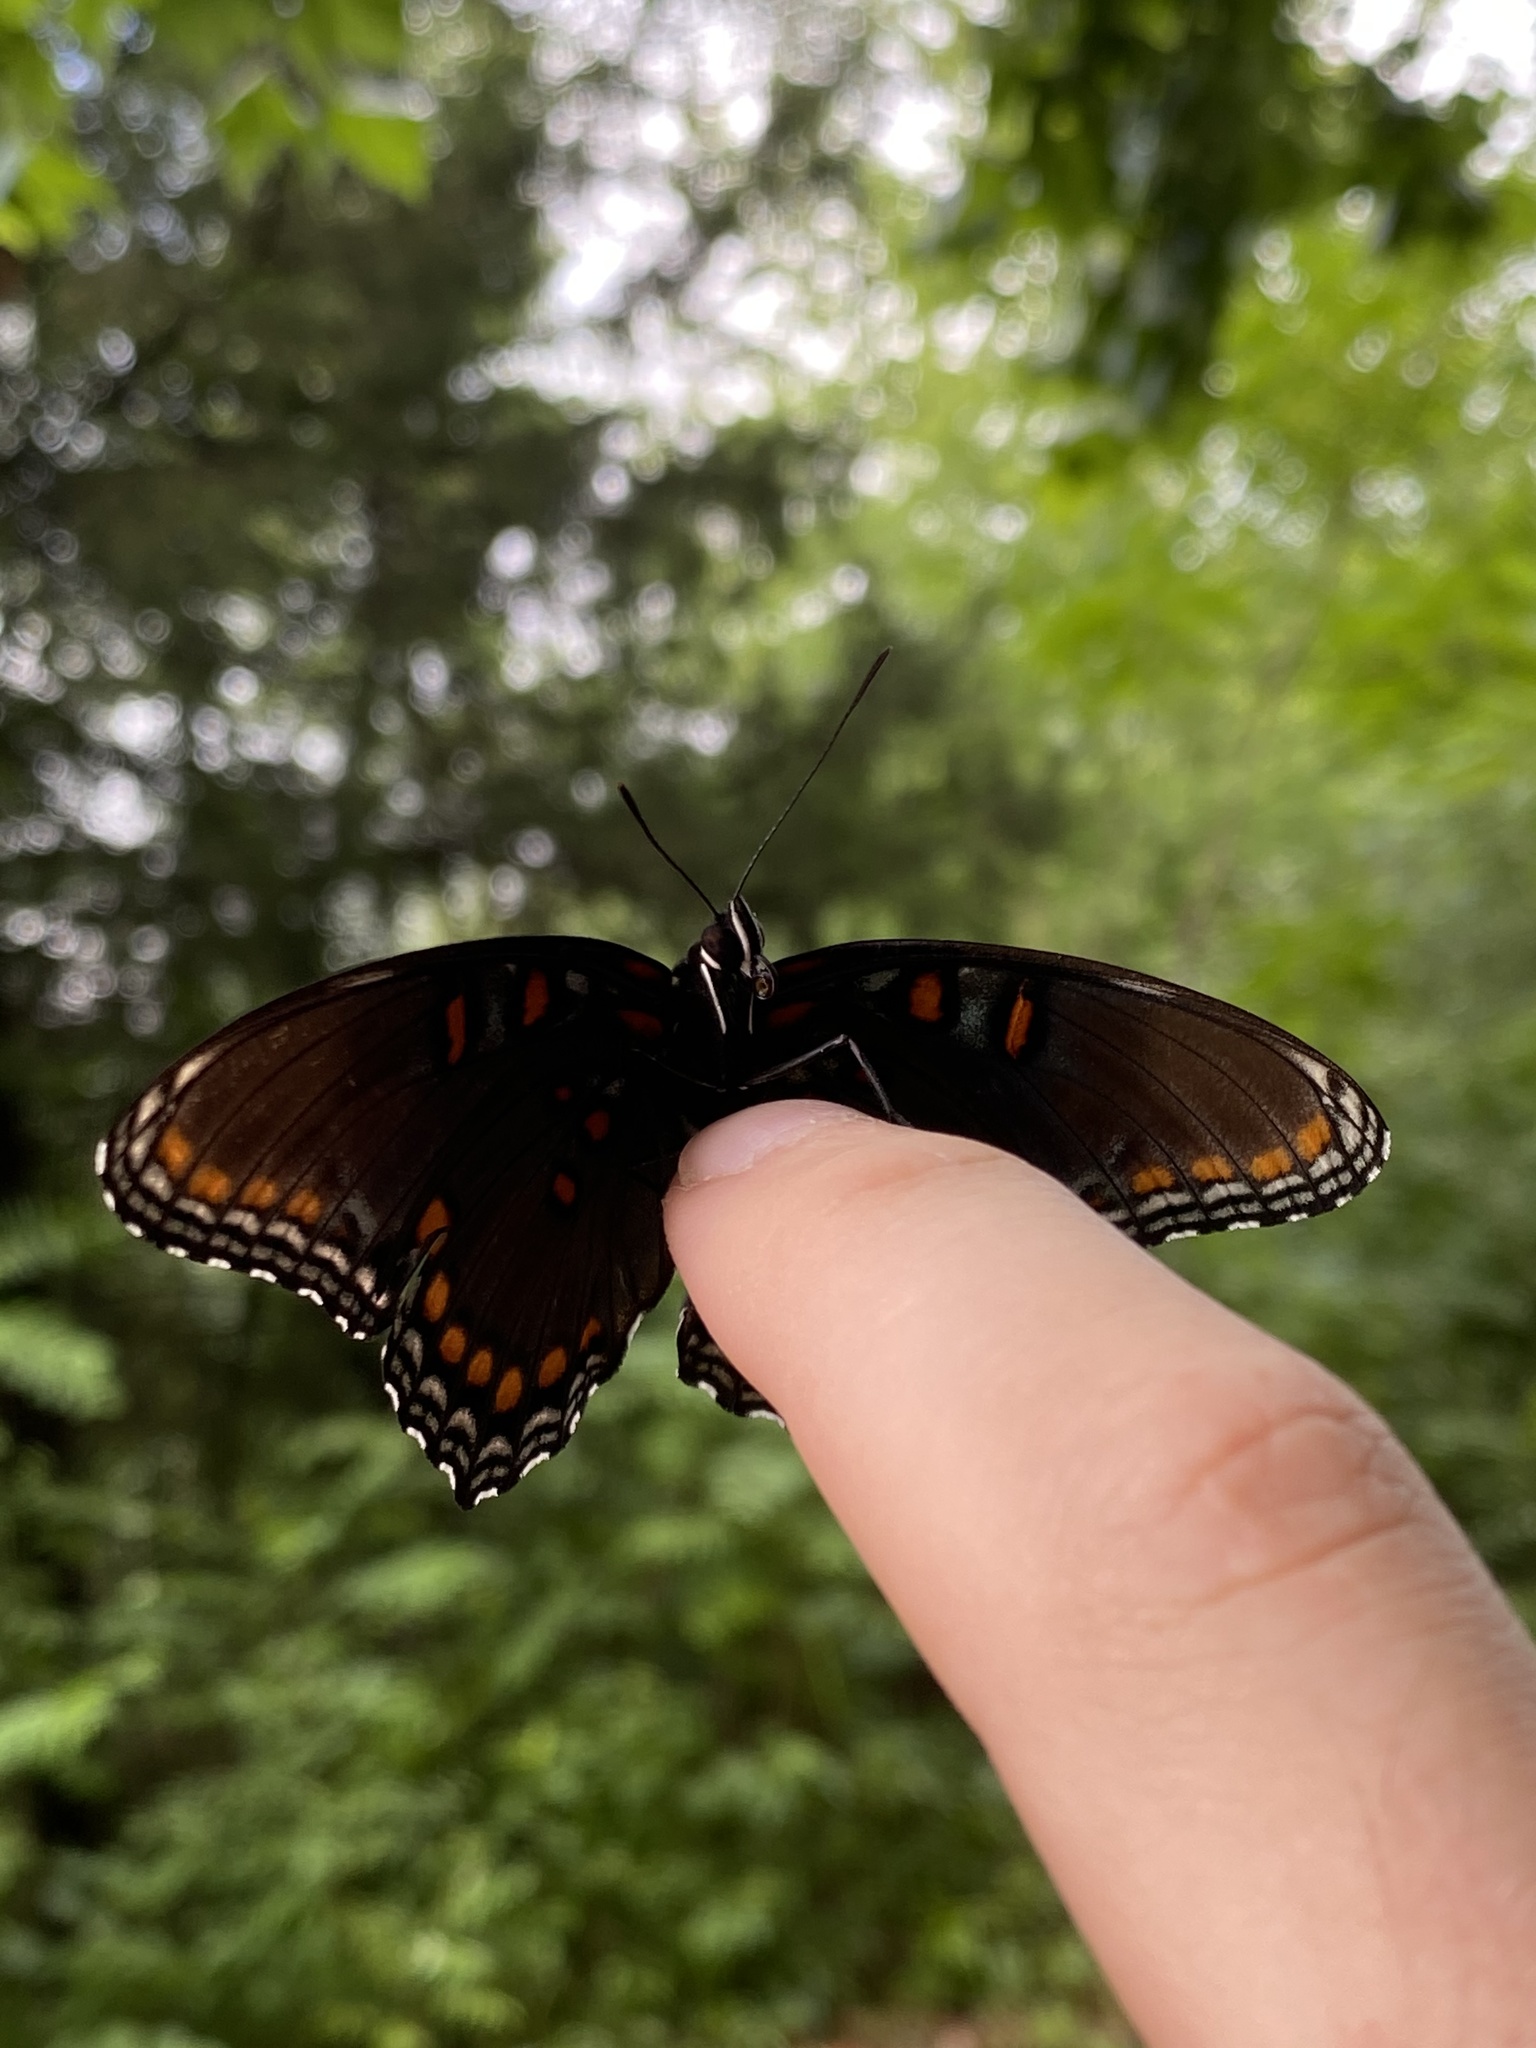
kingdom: Animalia
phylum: Arthropoda
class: Insecta
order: Lepidoptera
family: Nymphalidae
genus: Limenitis
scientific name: Limenitis astyanax
